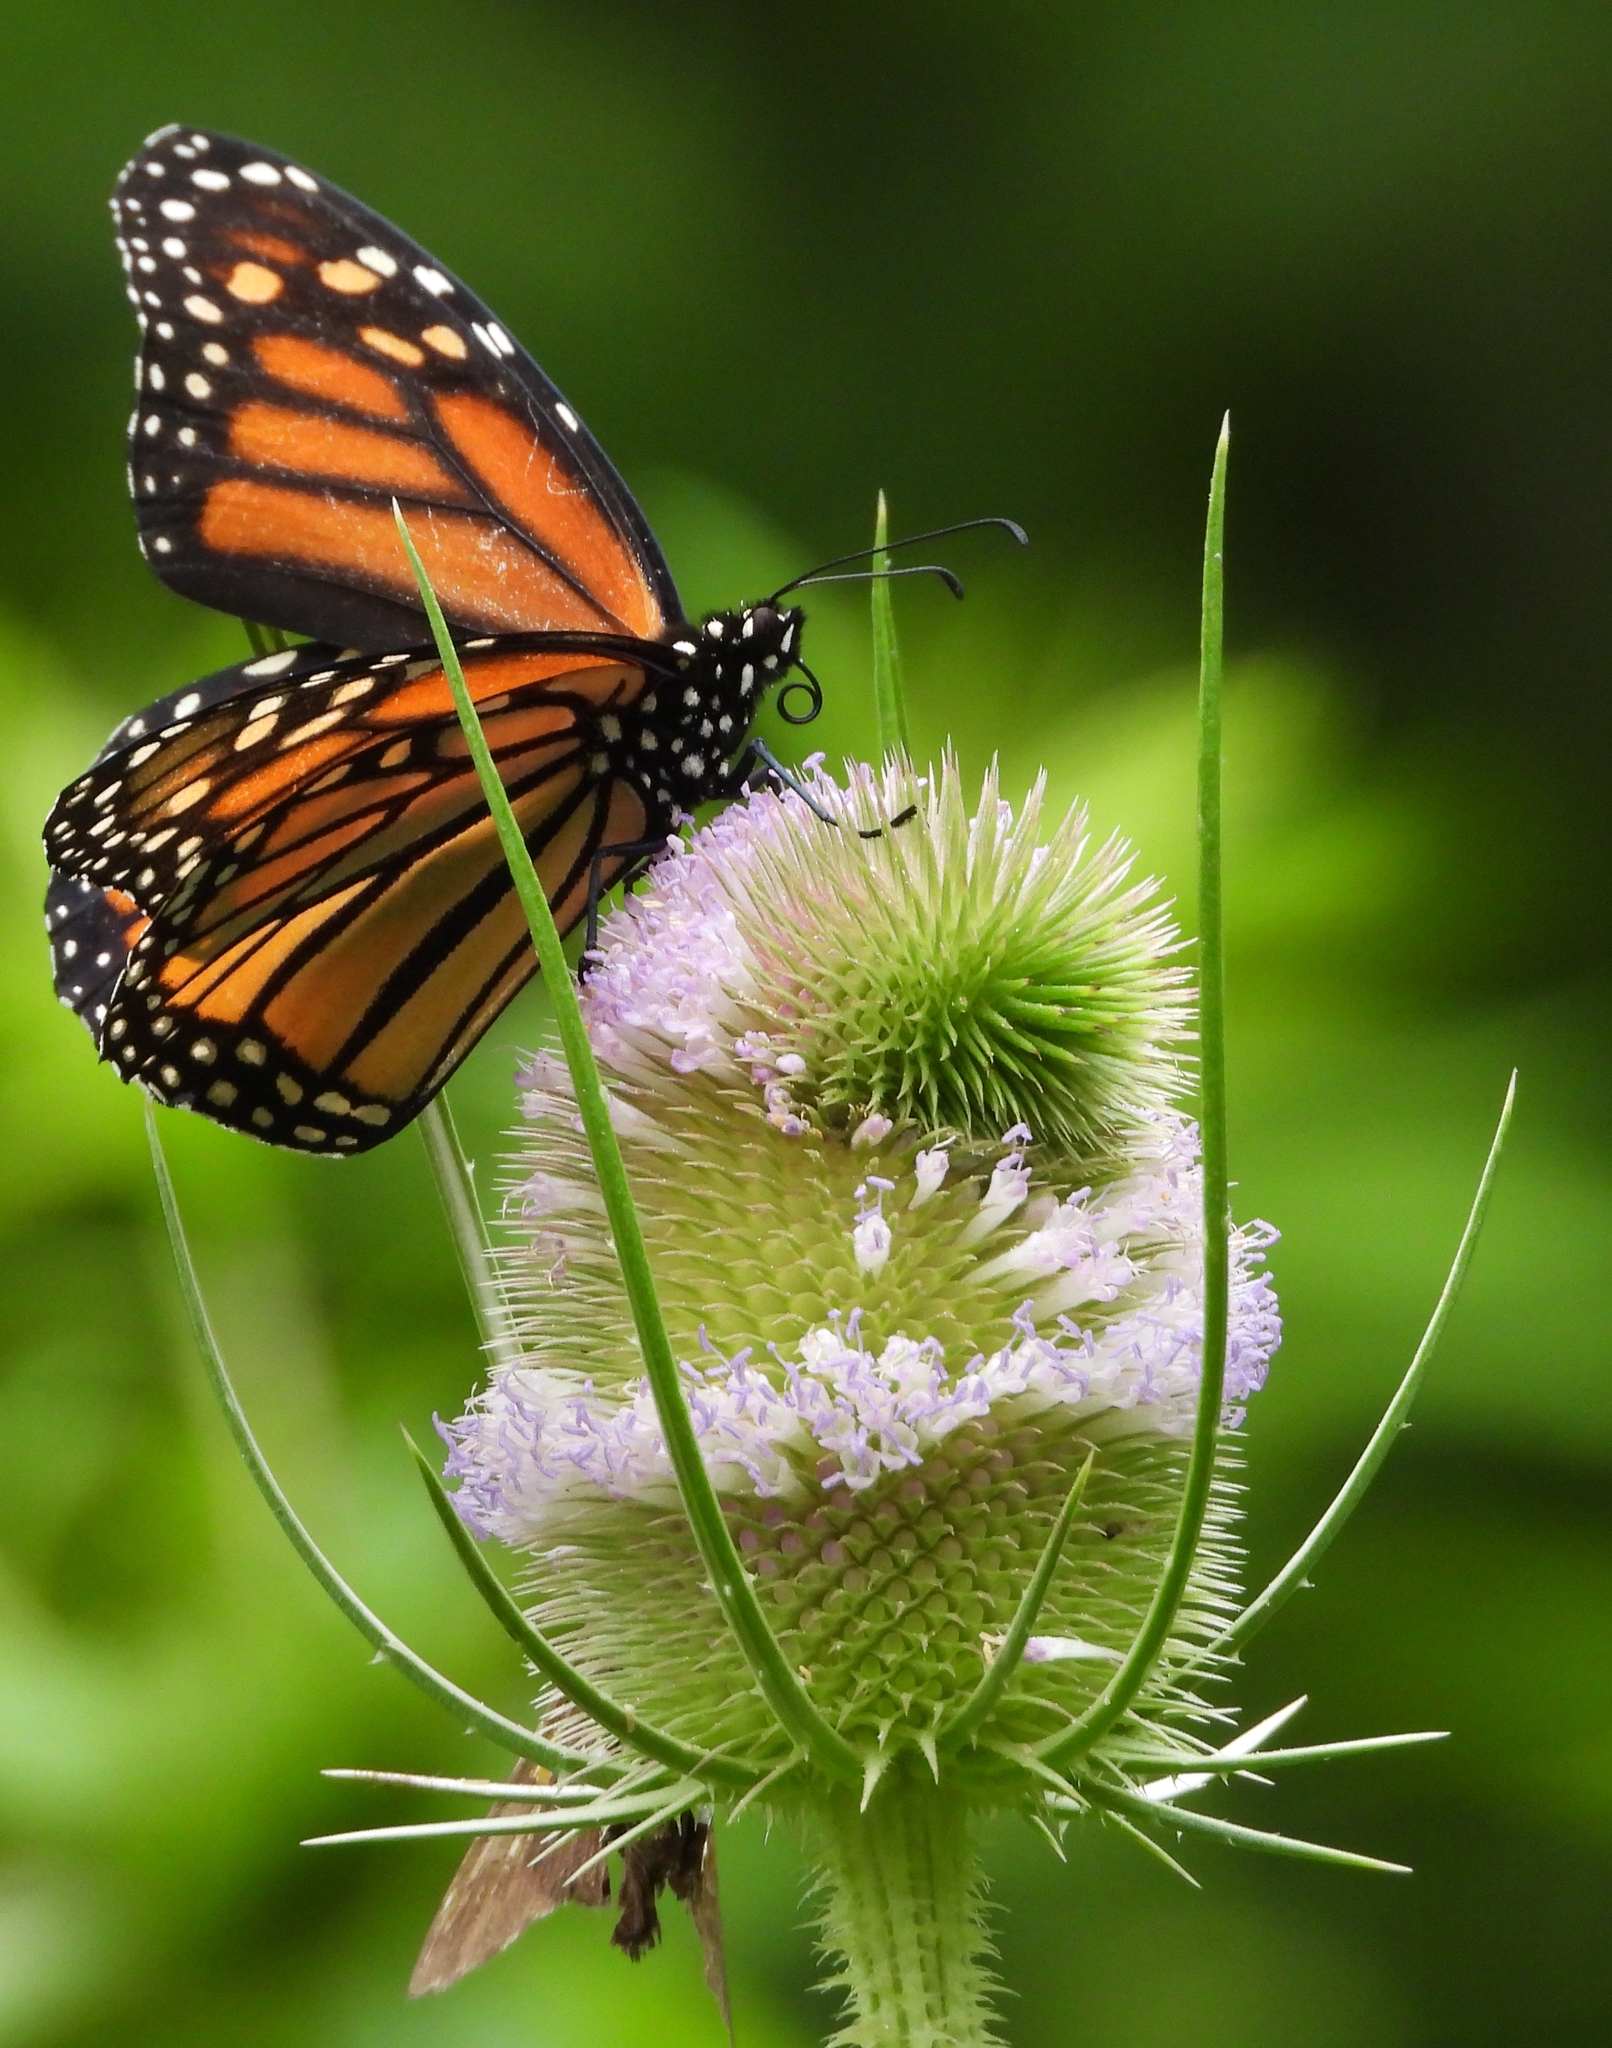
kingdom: Animalia
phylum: Arthropoda
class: Insecta
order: Lepidoptera
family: Nymphalidae
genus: Danaus
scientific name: Danaus plexippus
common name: Monarch
